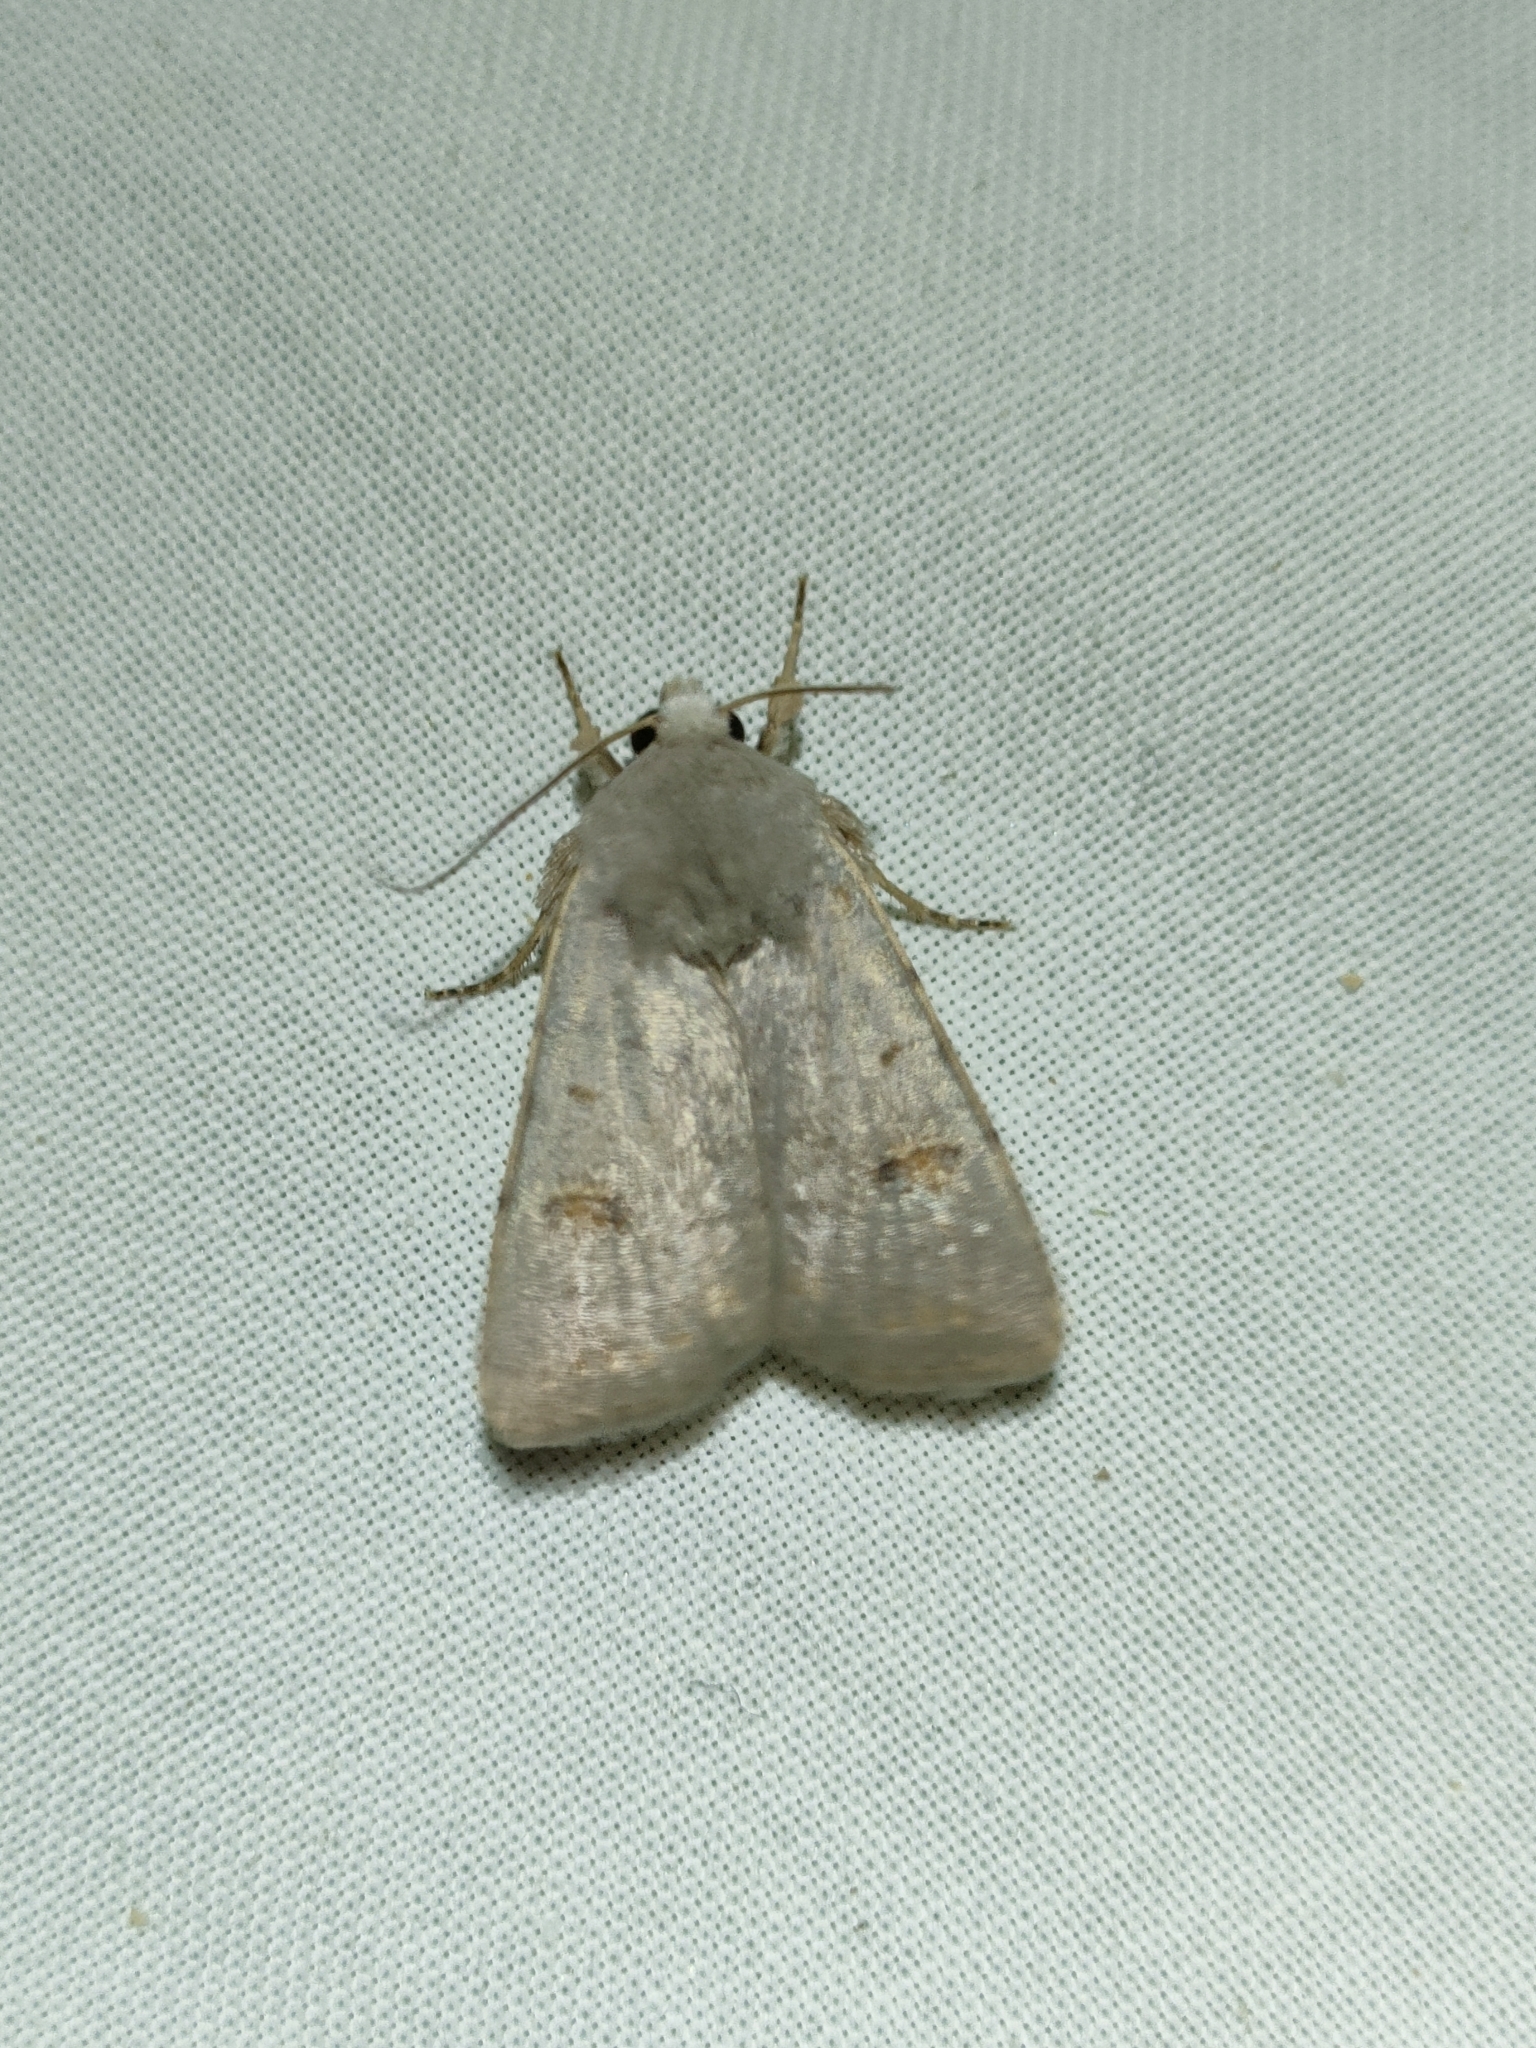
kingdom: Animalia
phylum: Arthropoda
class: Insecta
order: Lepidoptera
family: Noctuidae
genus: Caradrina
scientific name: Caradrina proxima
